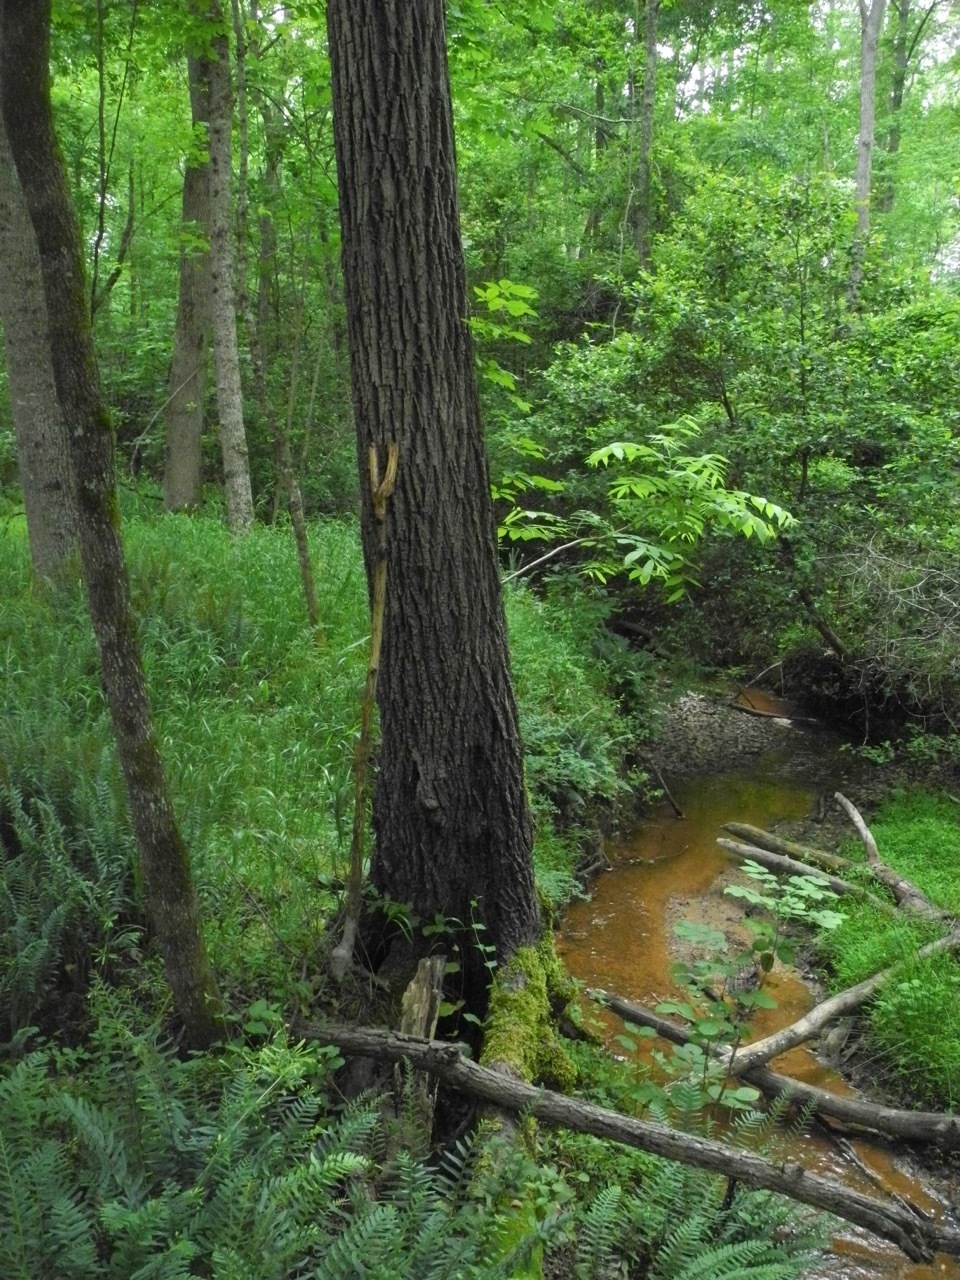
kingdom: Plantae
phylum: Tracheophyta
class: Magnoliopsida
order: Fagales
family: Juglandaceae
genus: Juglans
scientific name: Juglans nigra
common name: Black walnut
